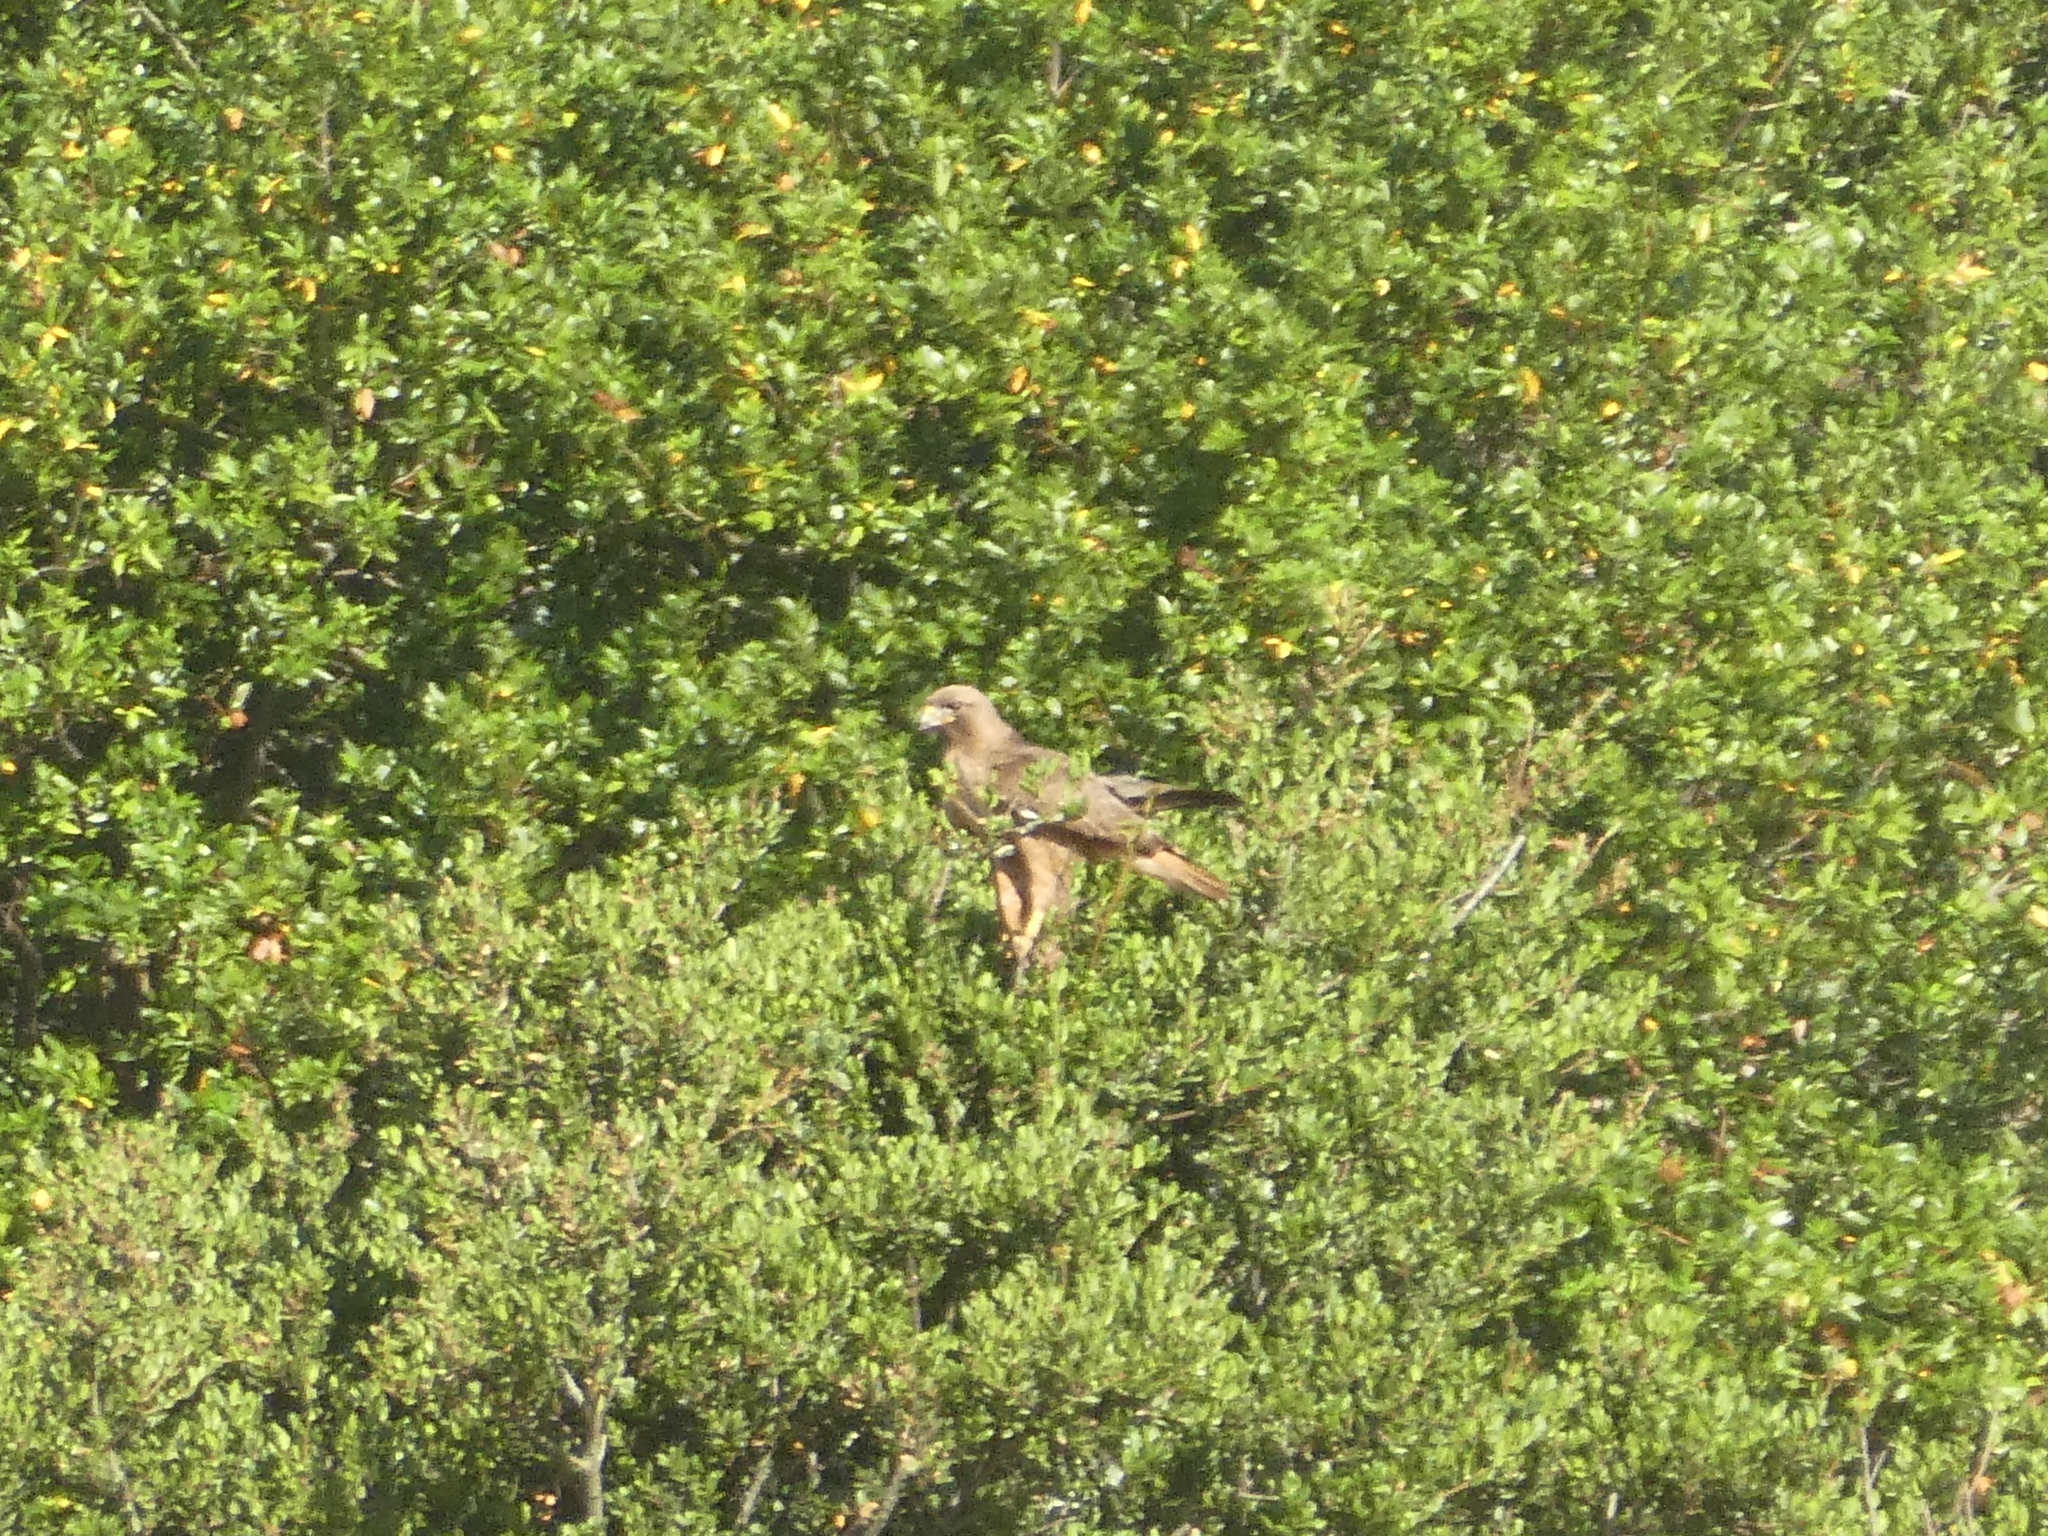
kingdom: Animalia
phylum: Chordata
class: Aves
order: Accipitriformes
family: Accipitridae
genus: Buteo
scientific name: Buteo jamaicensis
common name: Red-tailed hawk
